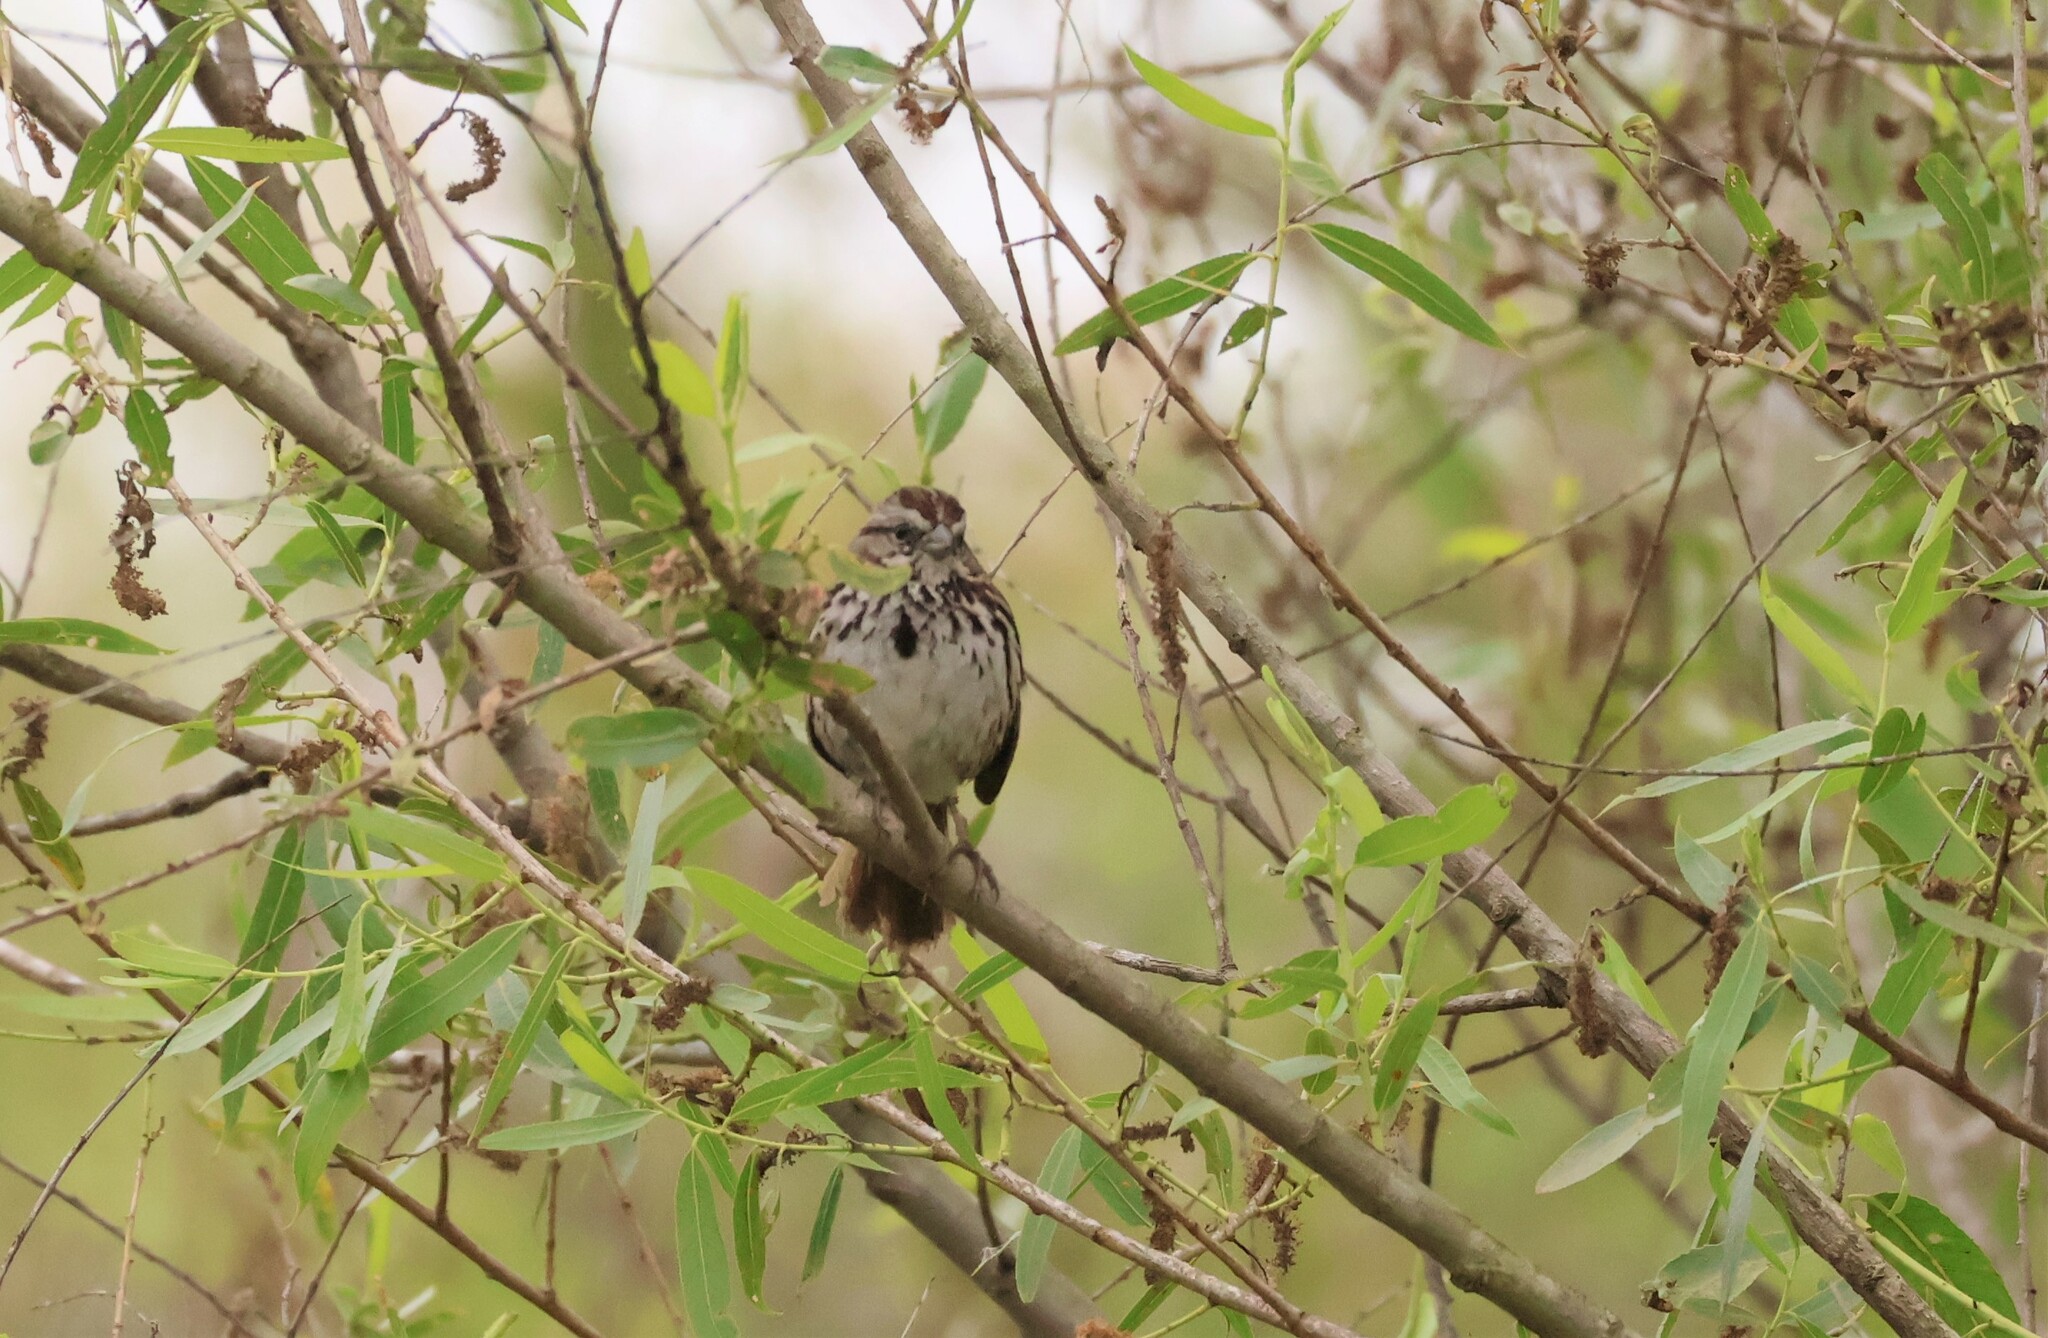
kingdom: Animalia
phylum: Chordata
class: Aves
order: Passeriformes
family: Passerellidae
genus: Melospiza
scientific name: Melospiza melodia
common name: Song sparrow
